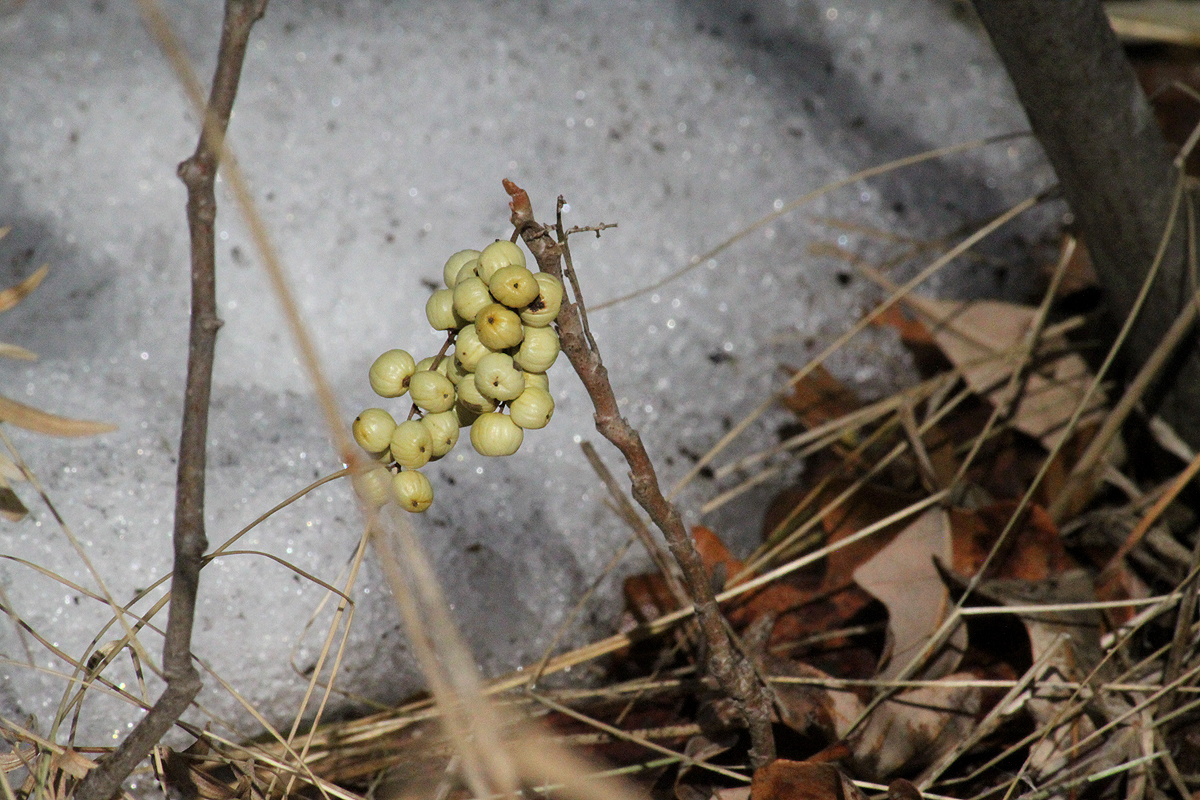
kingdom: Plantae
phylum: Tracheophyta
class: Magnoliopsida
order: Sapindales
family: Anacardiaceae
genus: Toxicodendron
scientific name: Toxicodendron rydbergii
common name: Rydberg's poison-ivy
